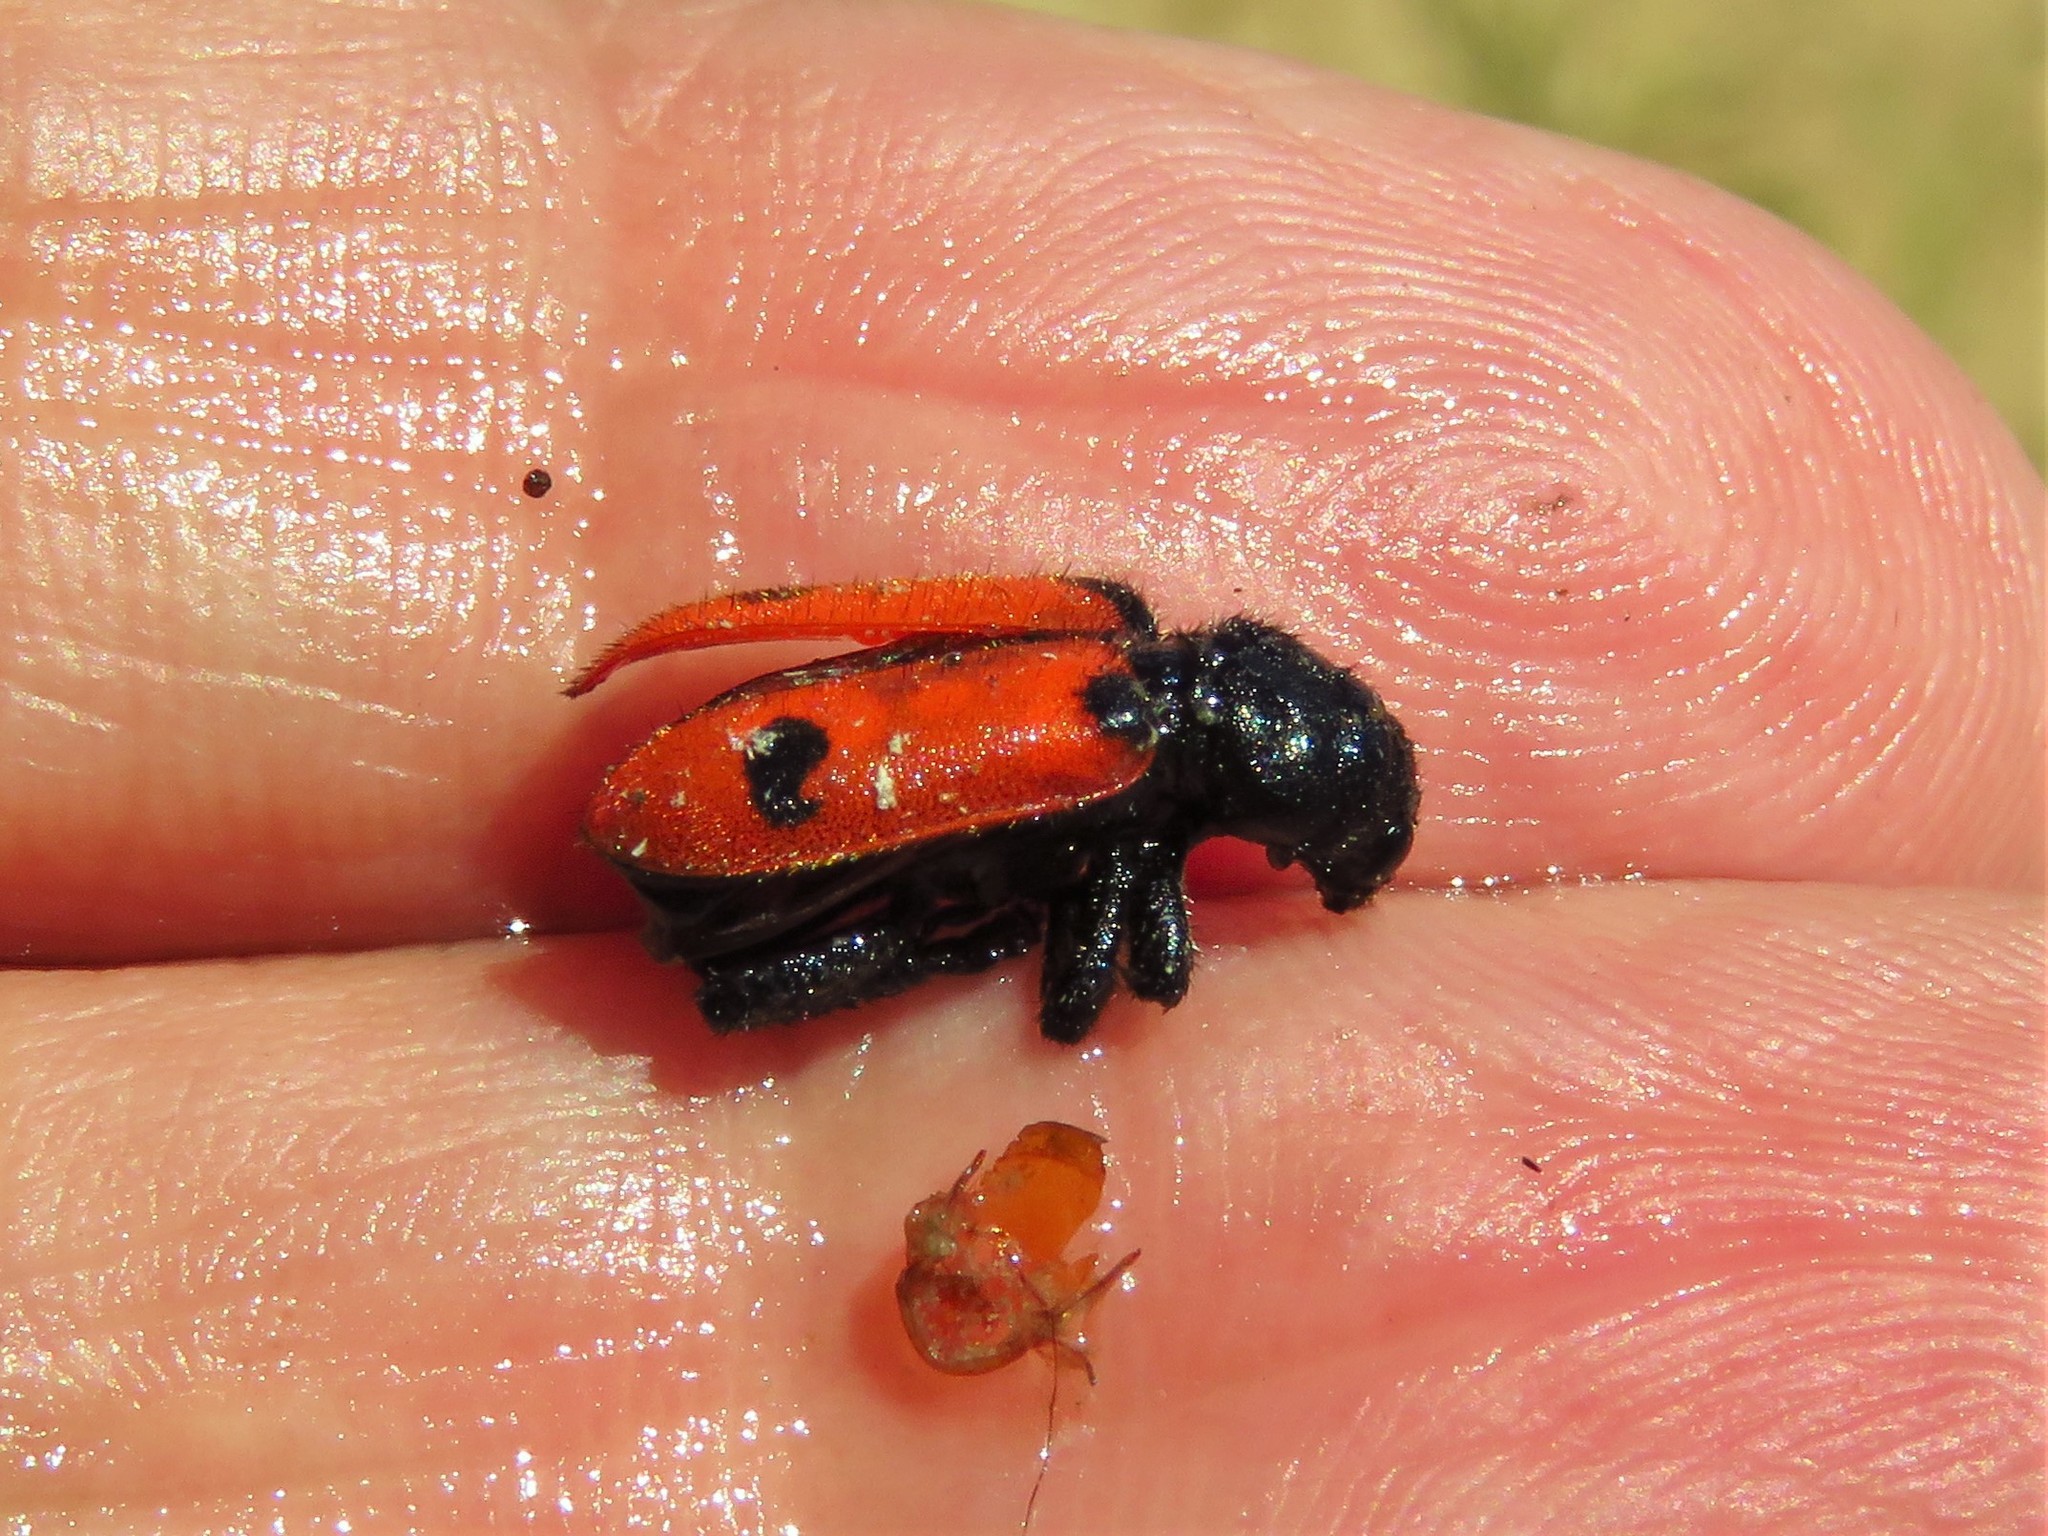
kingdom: Animalia
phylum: Arthropoda
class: Insecta
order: Coleoptera
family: Cleridae
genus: Enoclerus
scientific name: Enoclerus
